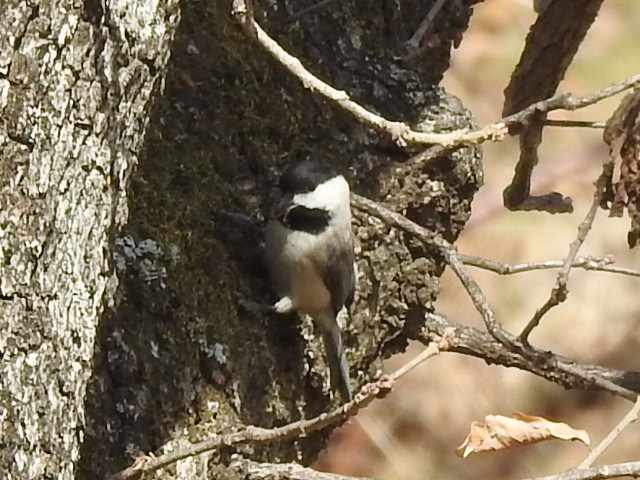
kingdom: Animalia
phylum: Chordata
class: Aves
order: Passeriformes
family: Paridae
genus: Poecile
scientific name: Poecile carolinensis
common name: Carolina chickadee
